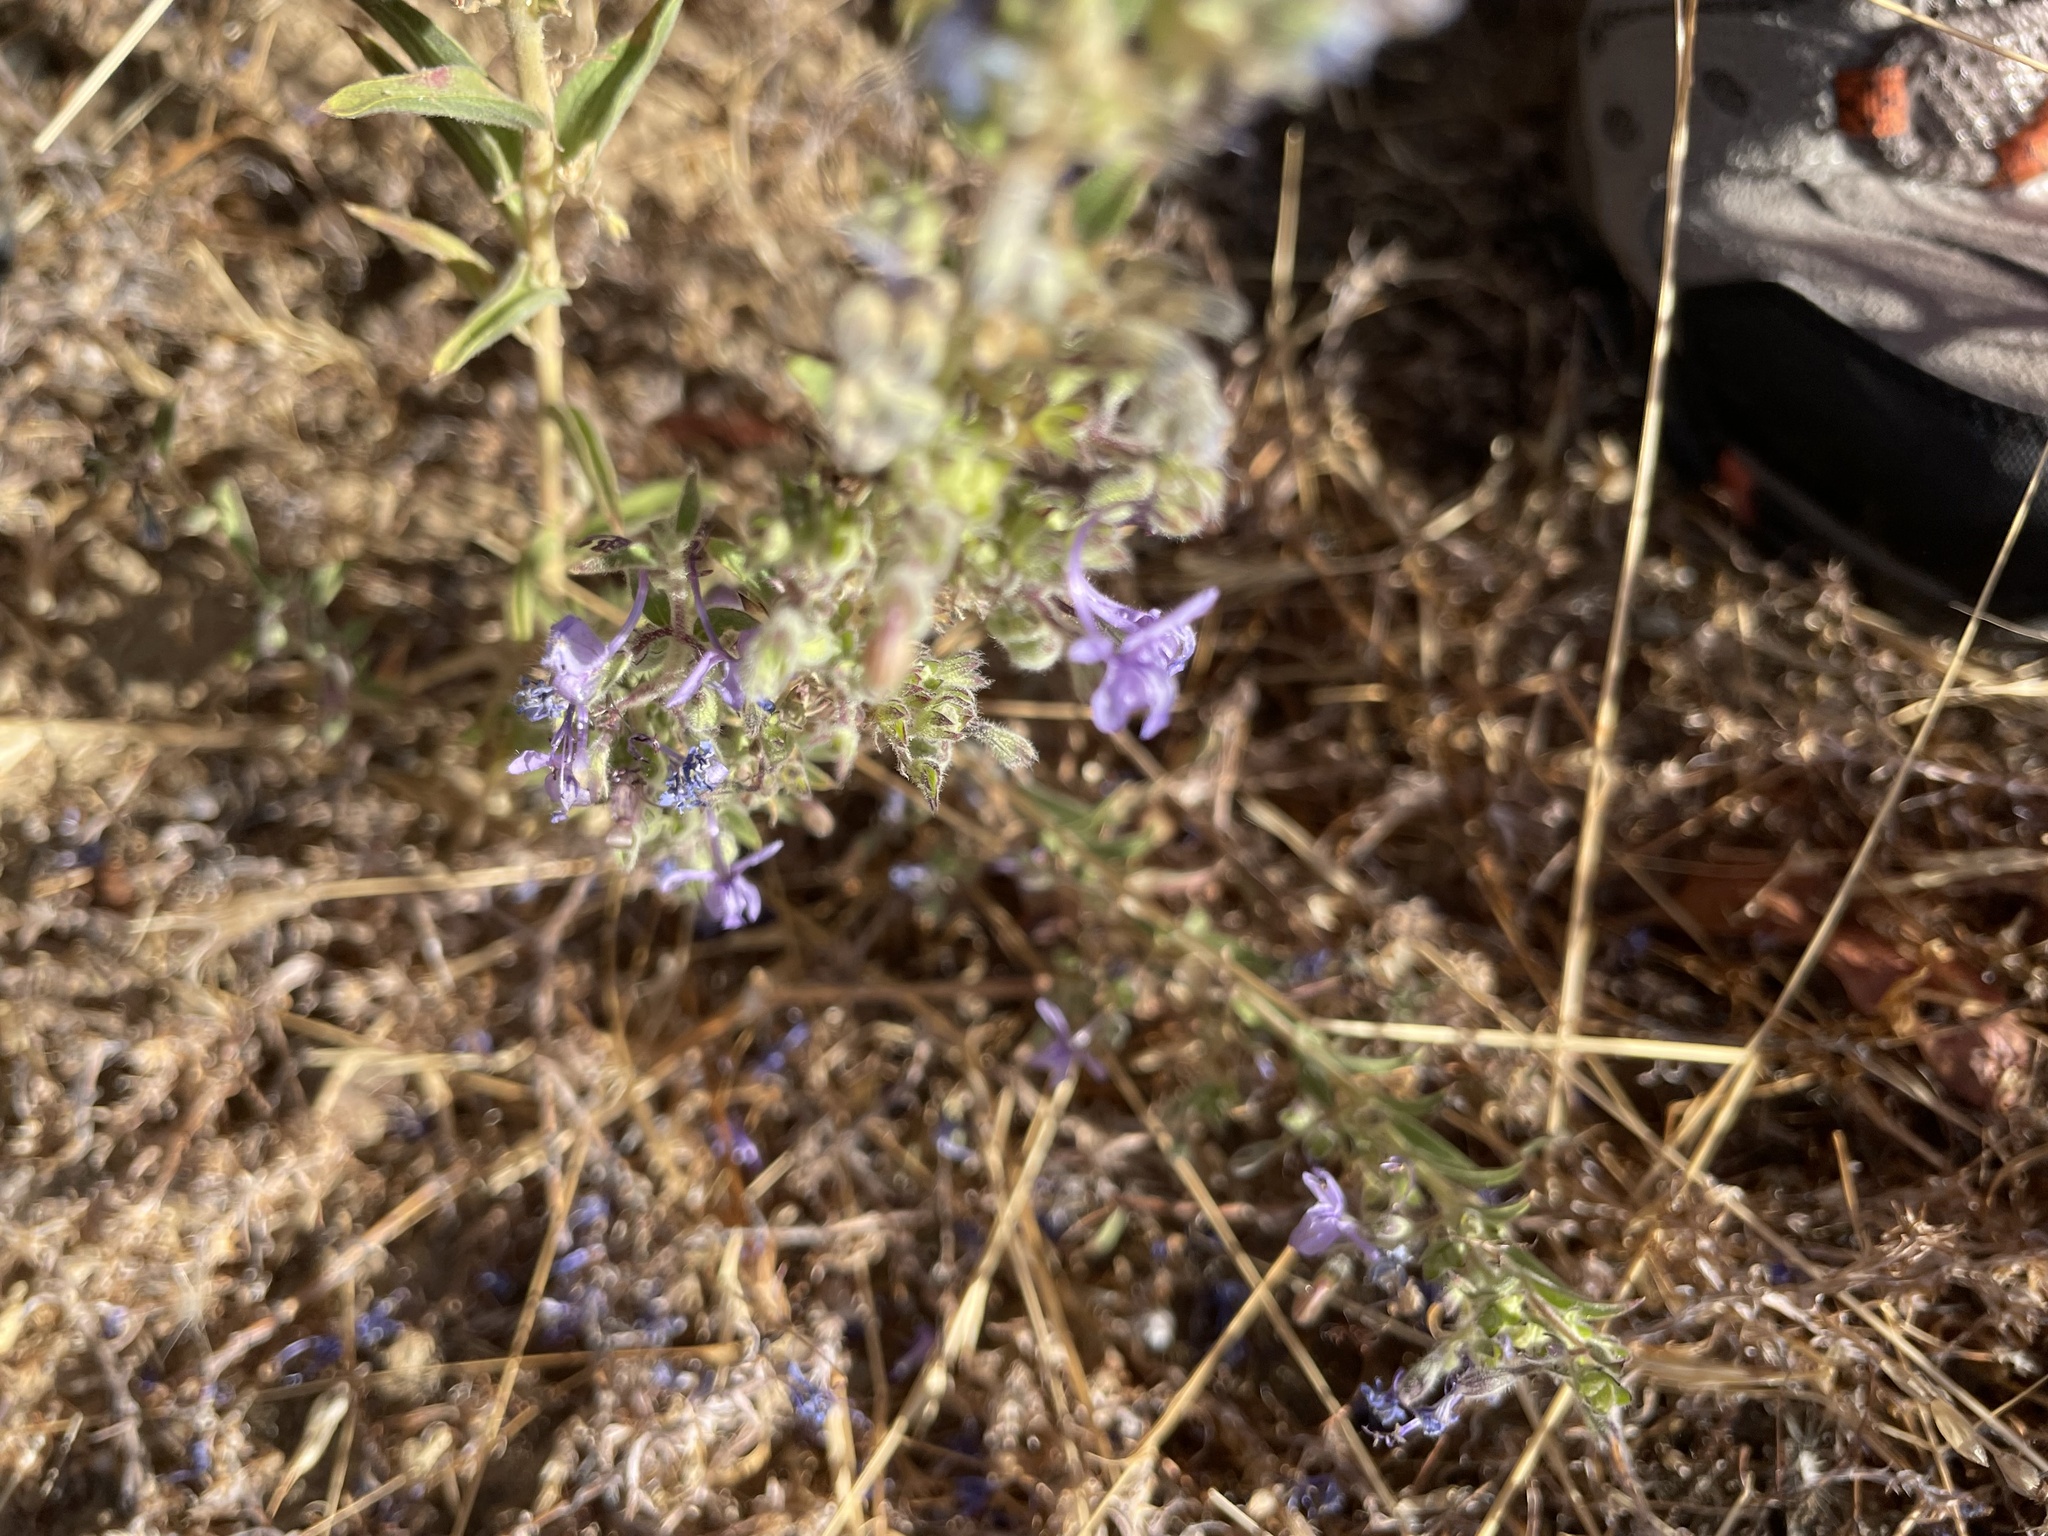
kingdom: Plantae
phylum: Tracheophyta
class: Magnoliopsida
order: Lamiales
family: Lamiaceae
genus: Trichostema
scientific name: Trichostema lanceolatum
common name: Vinegar-weed
